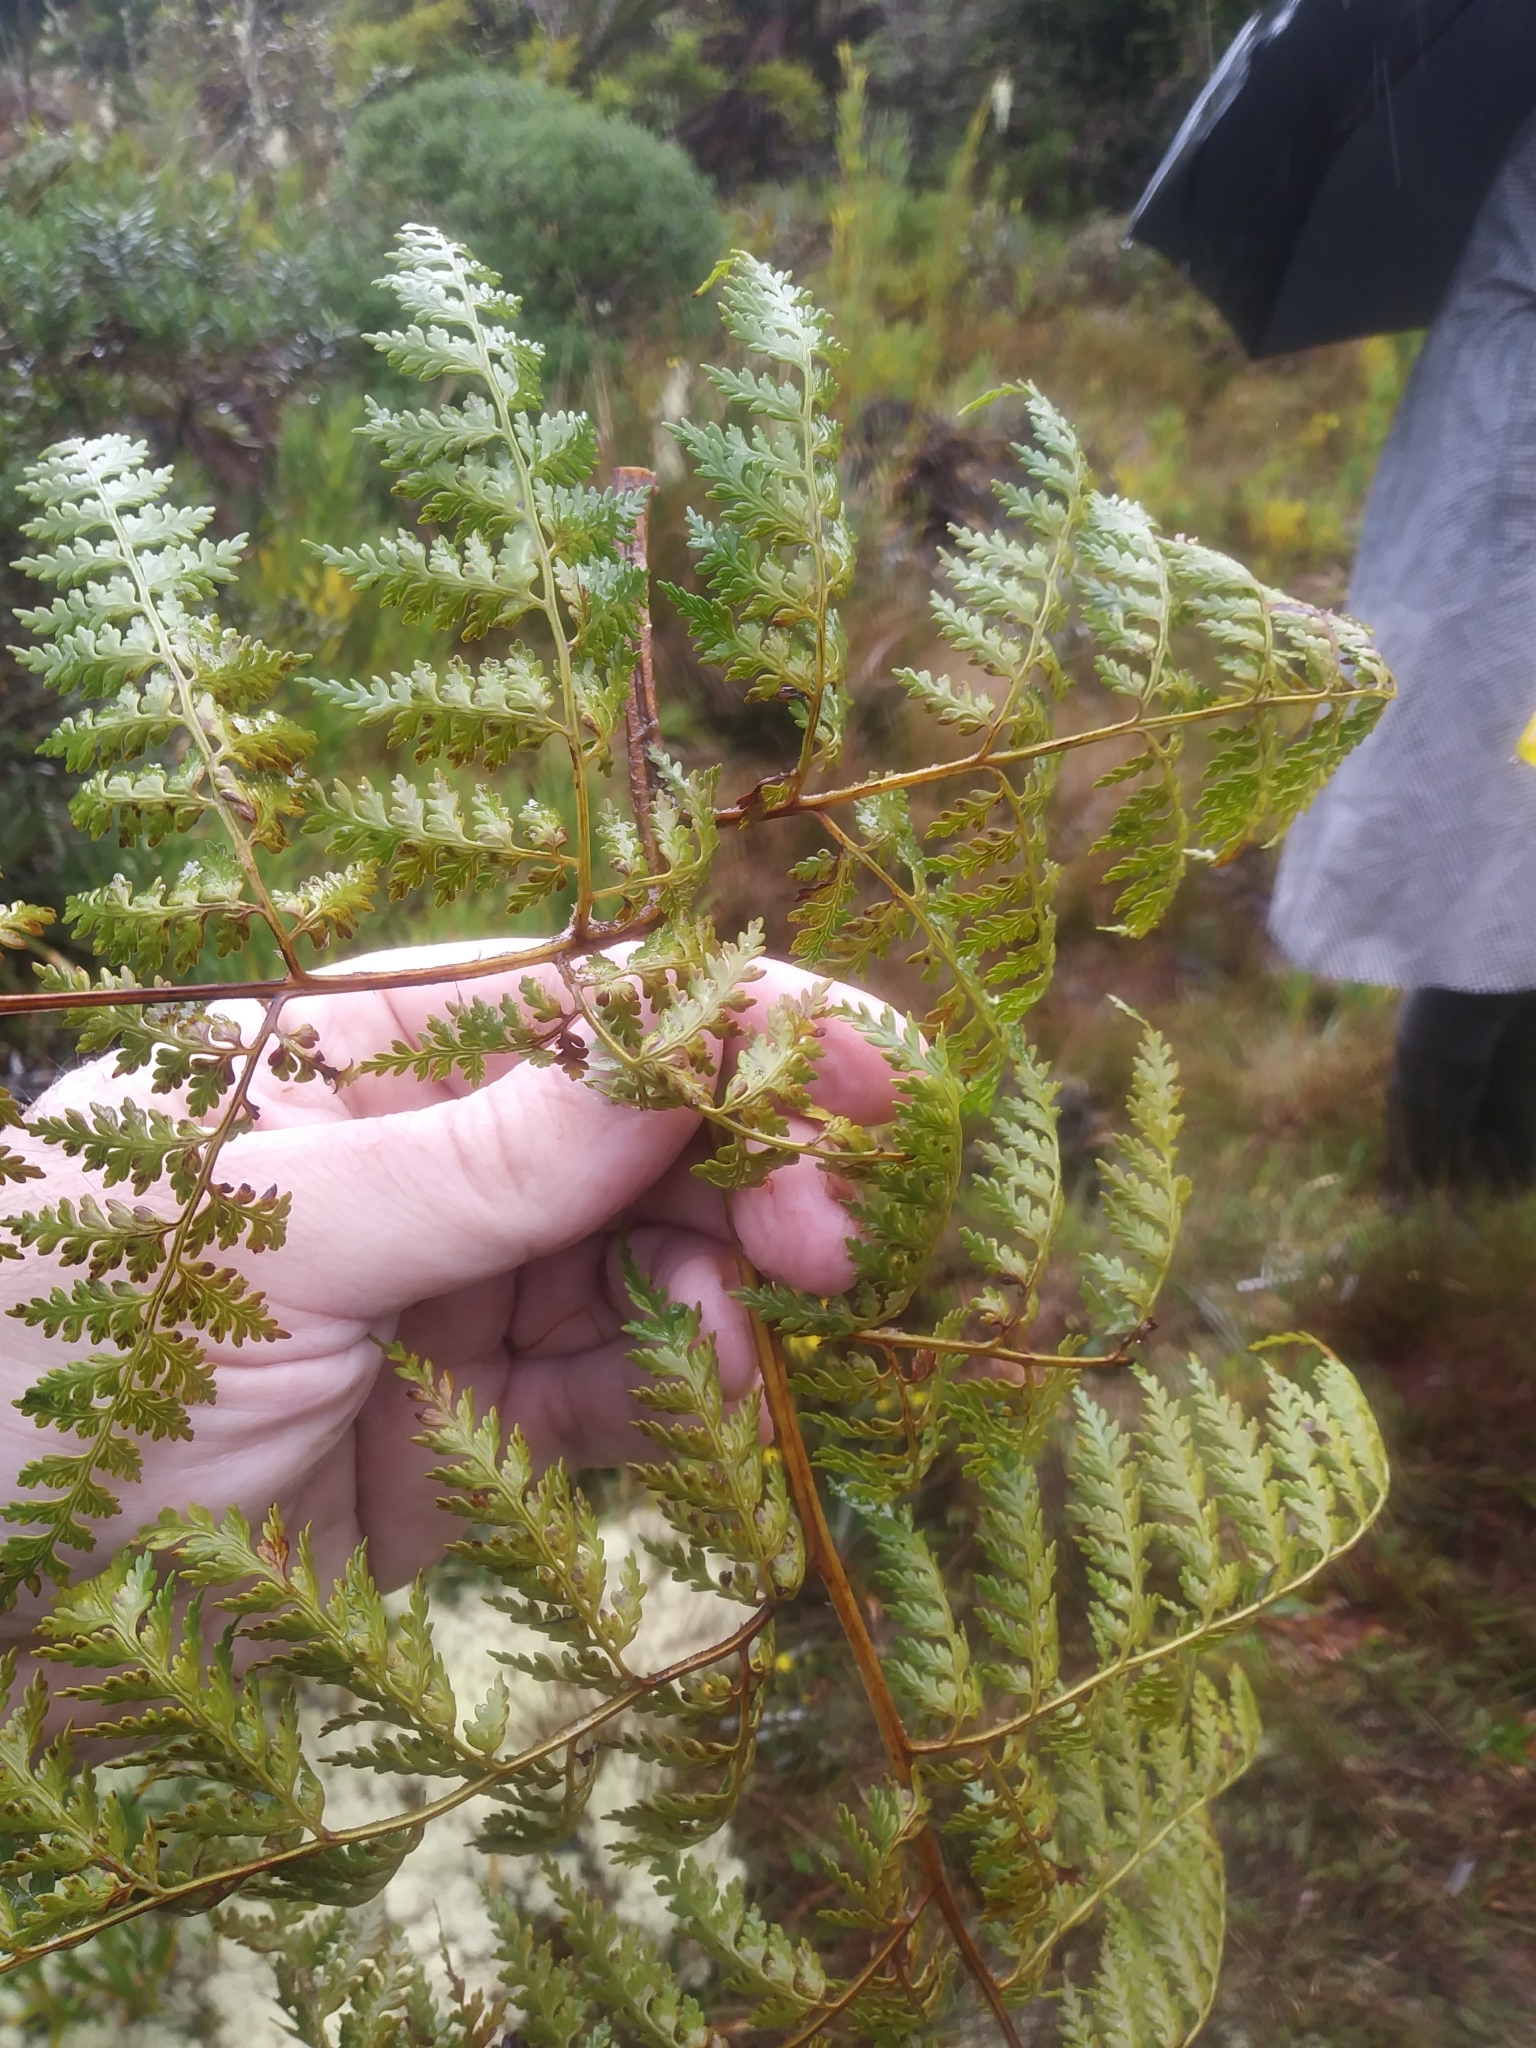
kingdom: Plantae
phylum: Tracheophyta
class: Polypodiopsida
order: Cyatheales
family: Culcitaceae
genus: Culcita
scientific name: Culcita coniifolia
